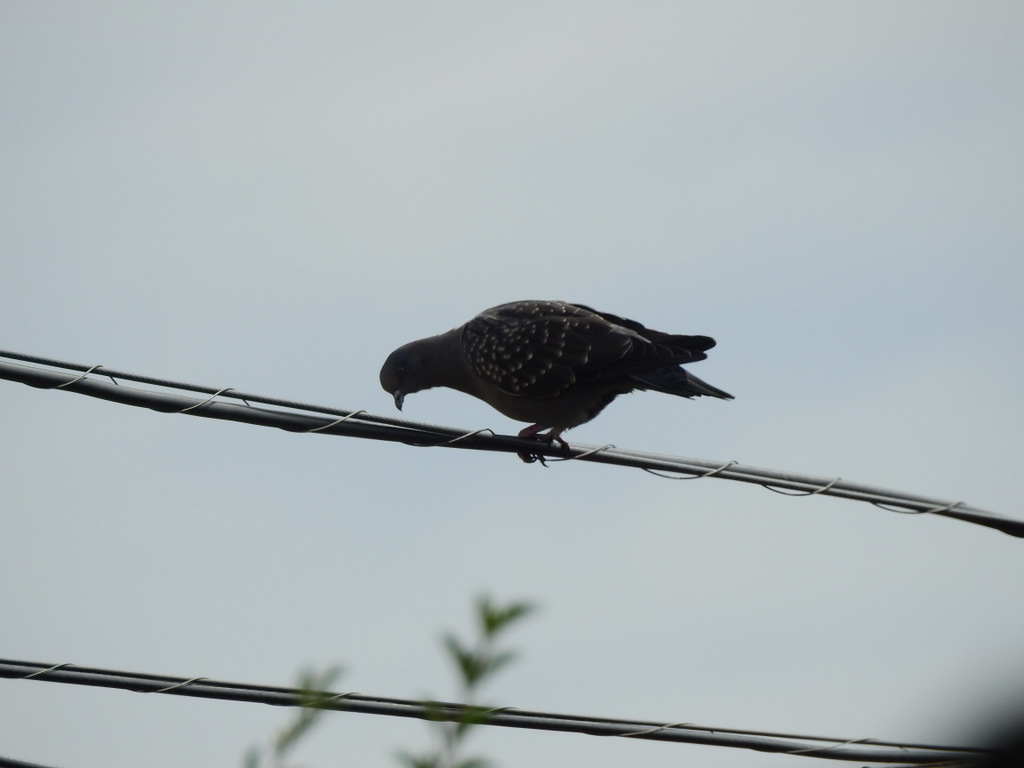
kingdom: Animalia
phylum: Chordata
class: Aves
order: Columbiformes
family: Columbidae
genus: Patagioenas
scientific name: Patagioenas maculosa
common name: Spot-winged pigeon
